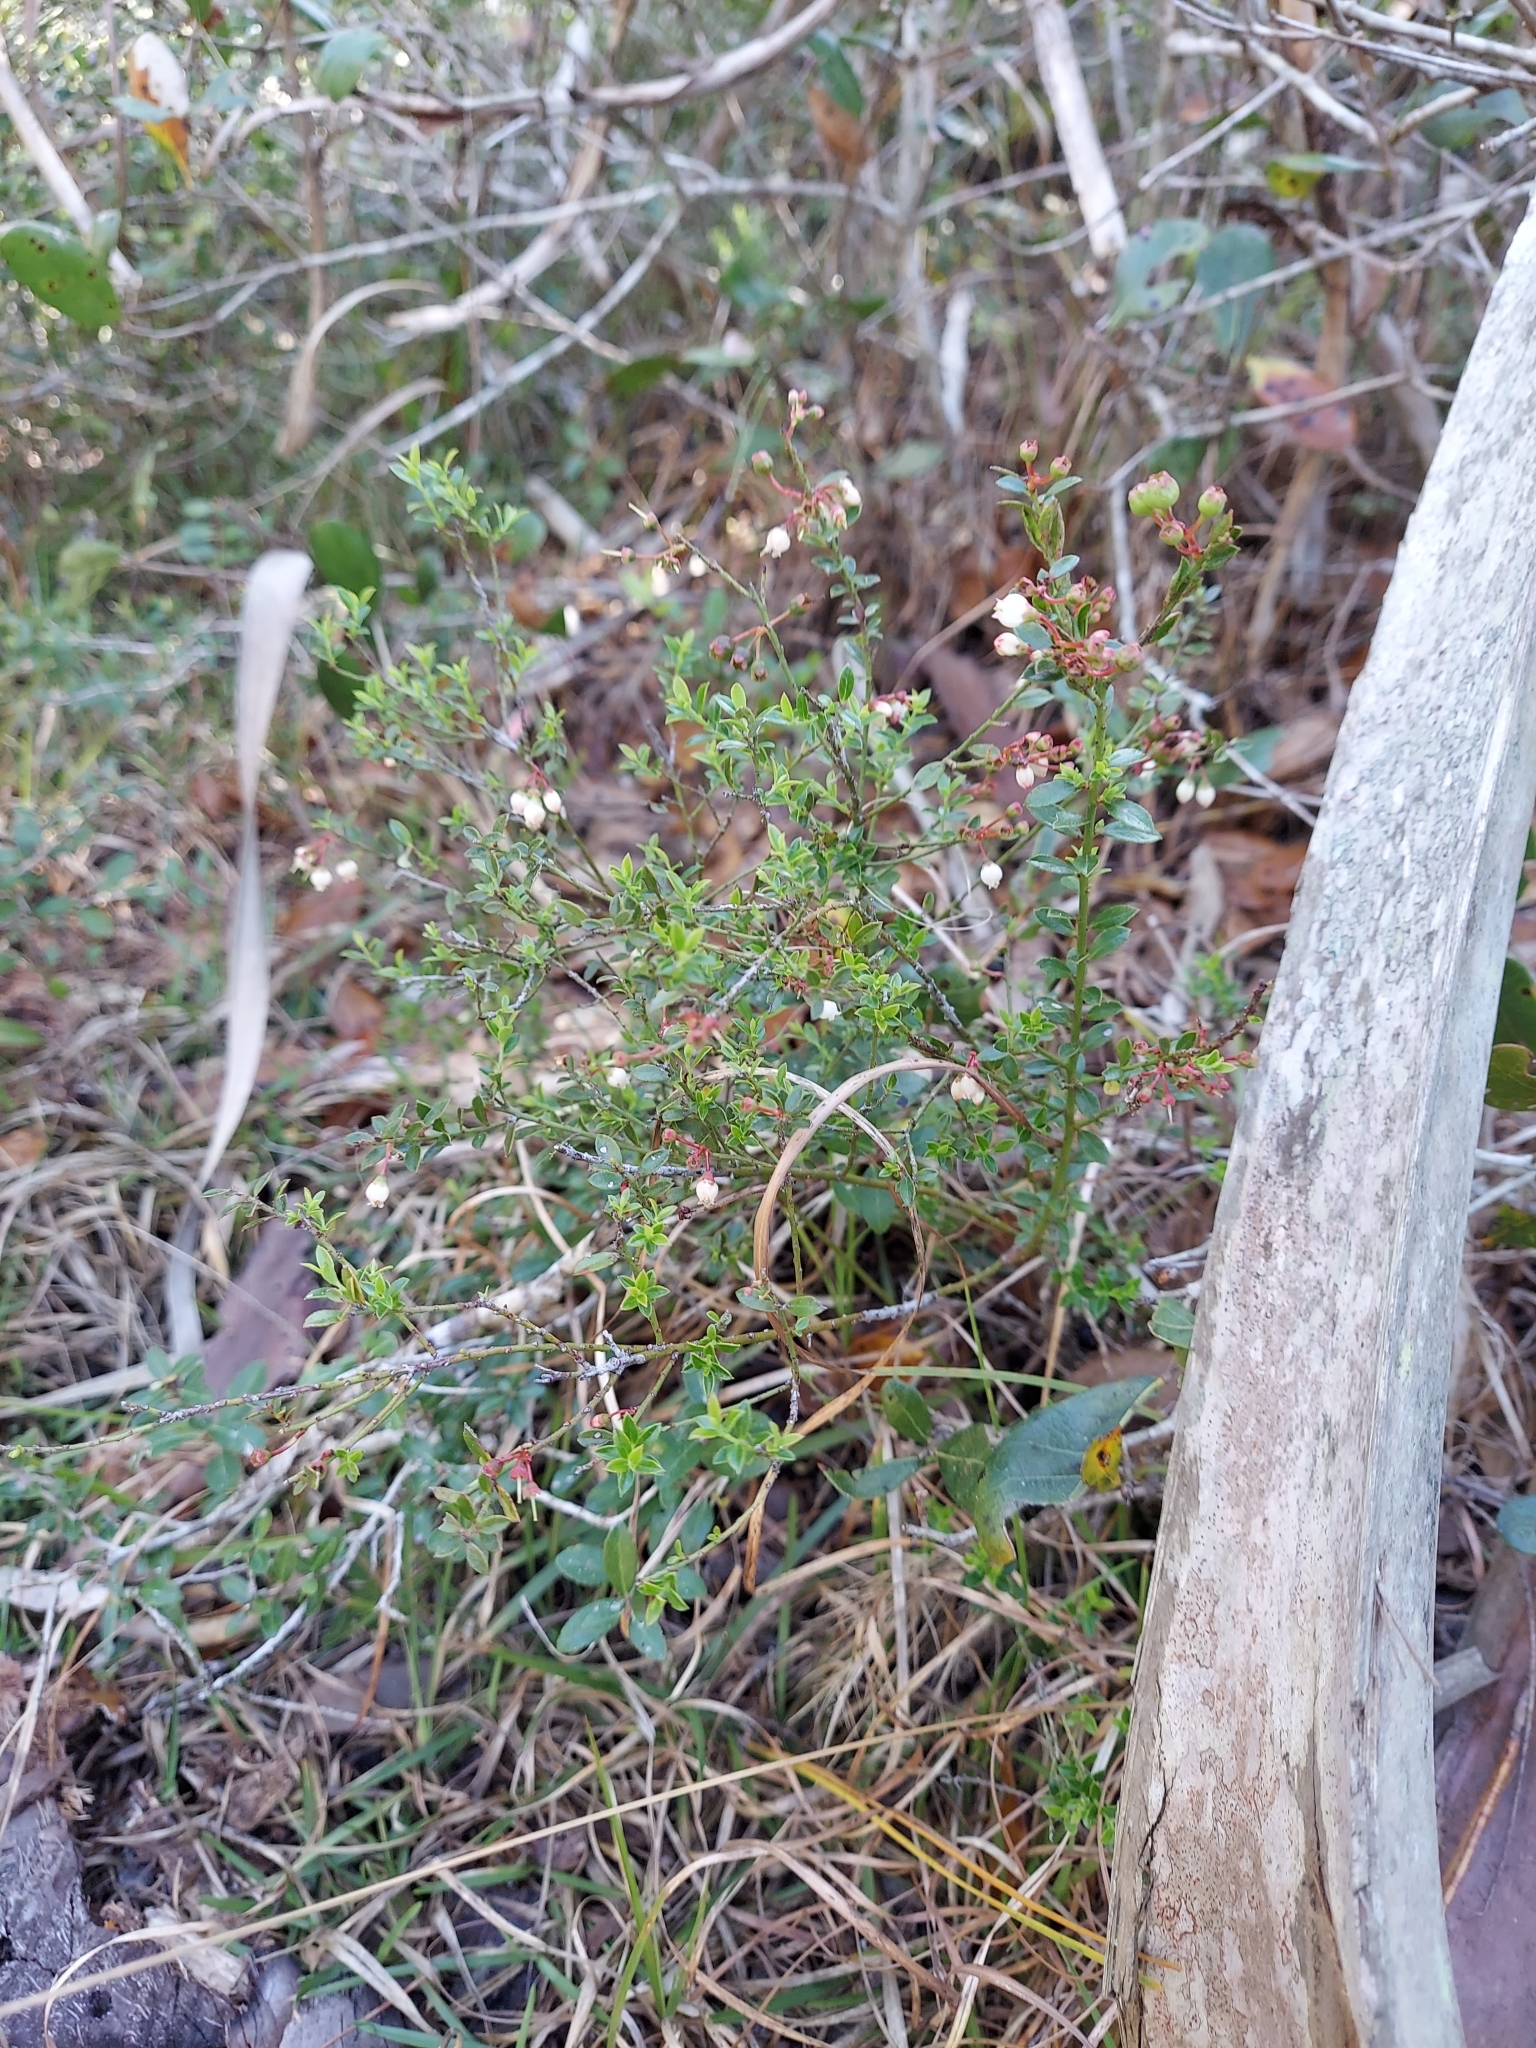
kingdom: Plantae
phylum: Tracheophyta
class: Magnoliopsida
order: Ericales
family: Ericaceae
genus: Vaccinium
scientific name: Vaccinium myrsinites
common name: Evergreen blueberry
